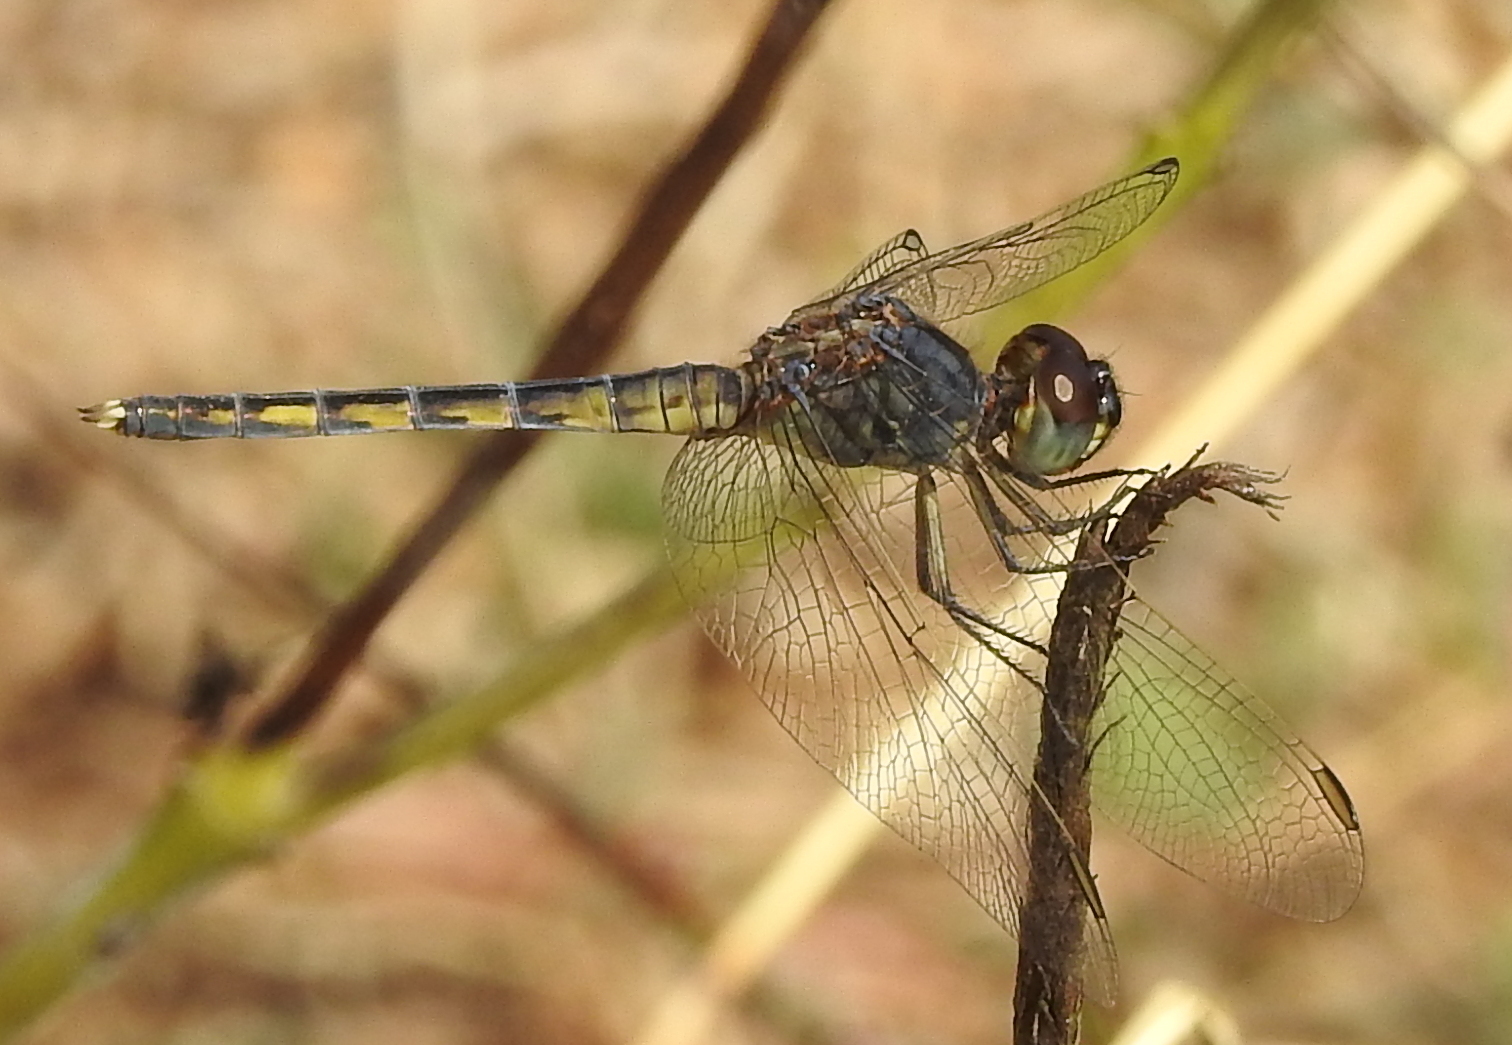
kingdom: Animalia
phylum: Arthropoda
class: Insecta
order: Odonata
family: Libellulidae
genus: Indothemis
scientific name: Indothemis carnatica
